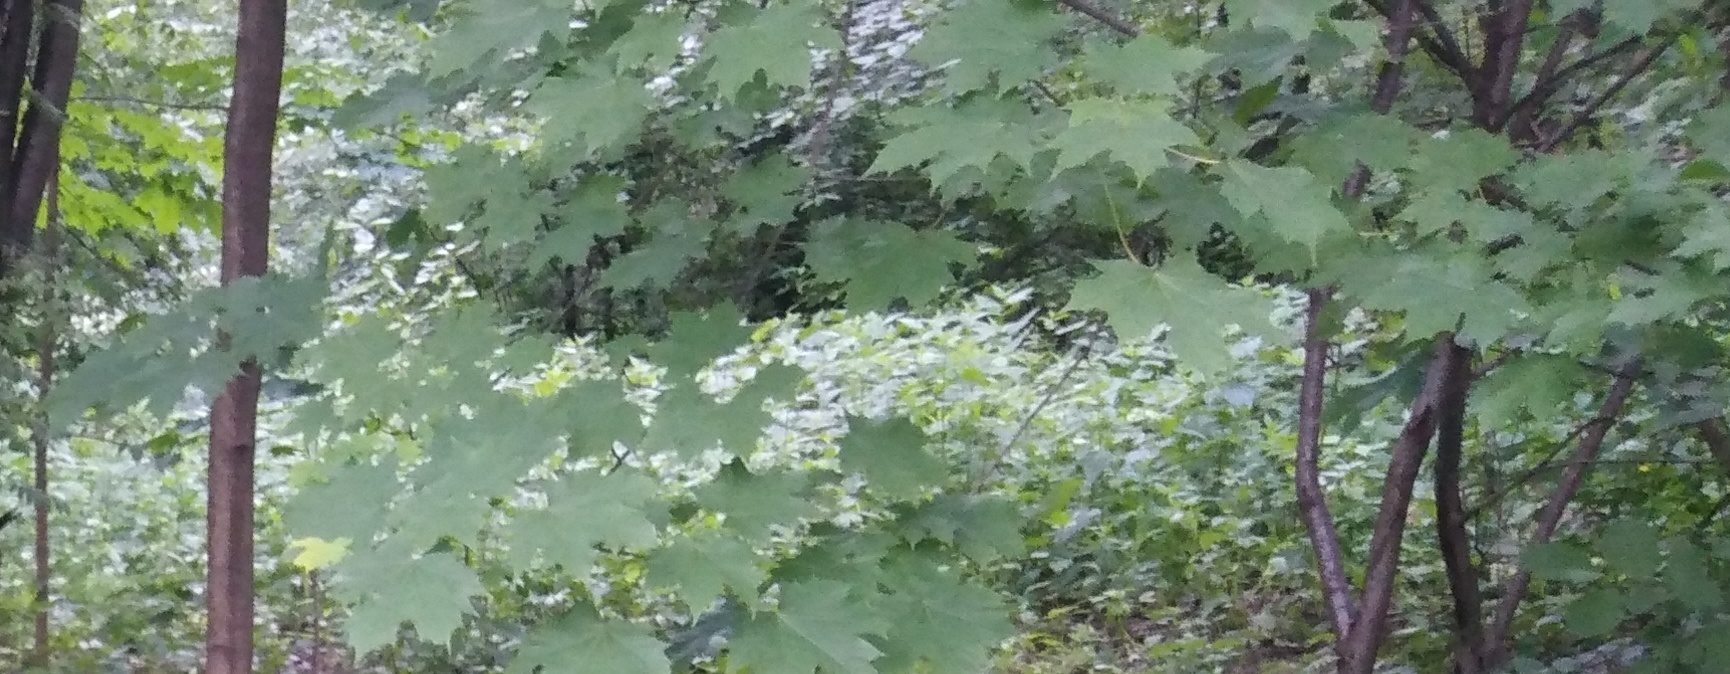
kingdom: Plantae
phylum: Tracheophyta
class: Magnoliopsida
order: Sapindales
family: Sapindaceae
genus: Acer
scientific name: Acer platanoides
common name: Norway maple
